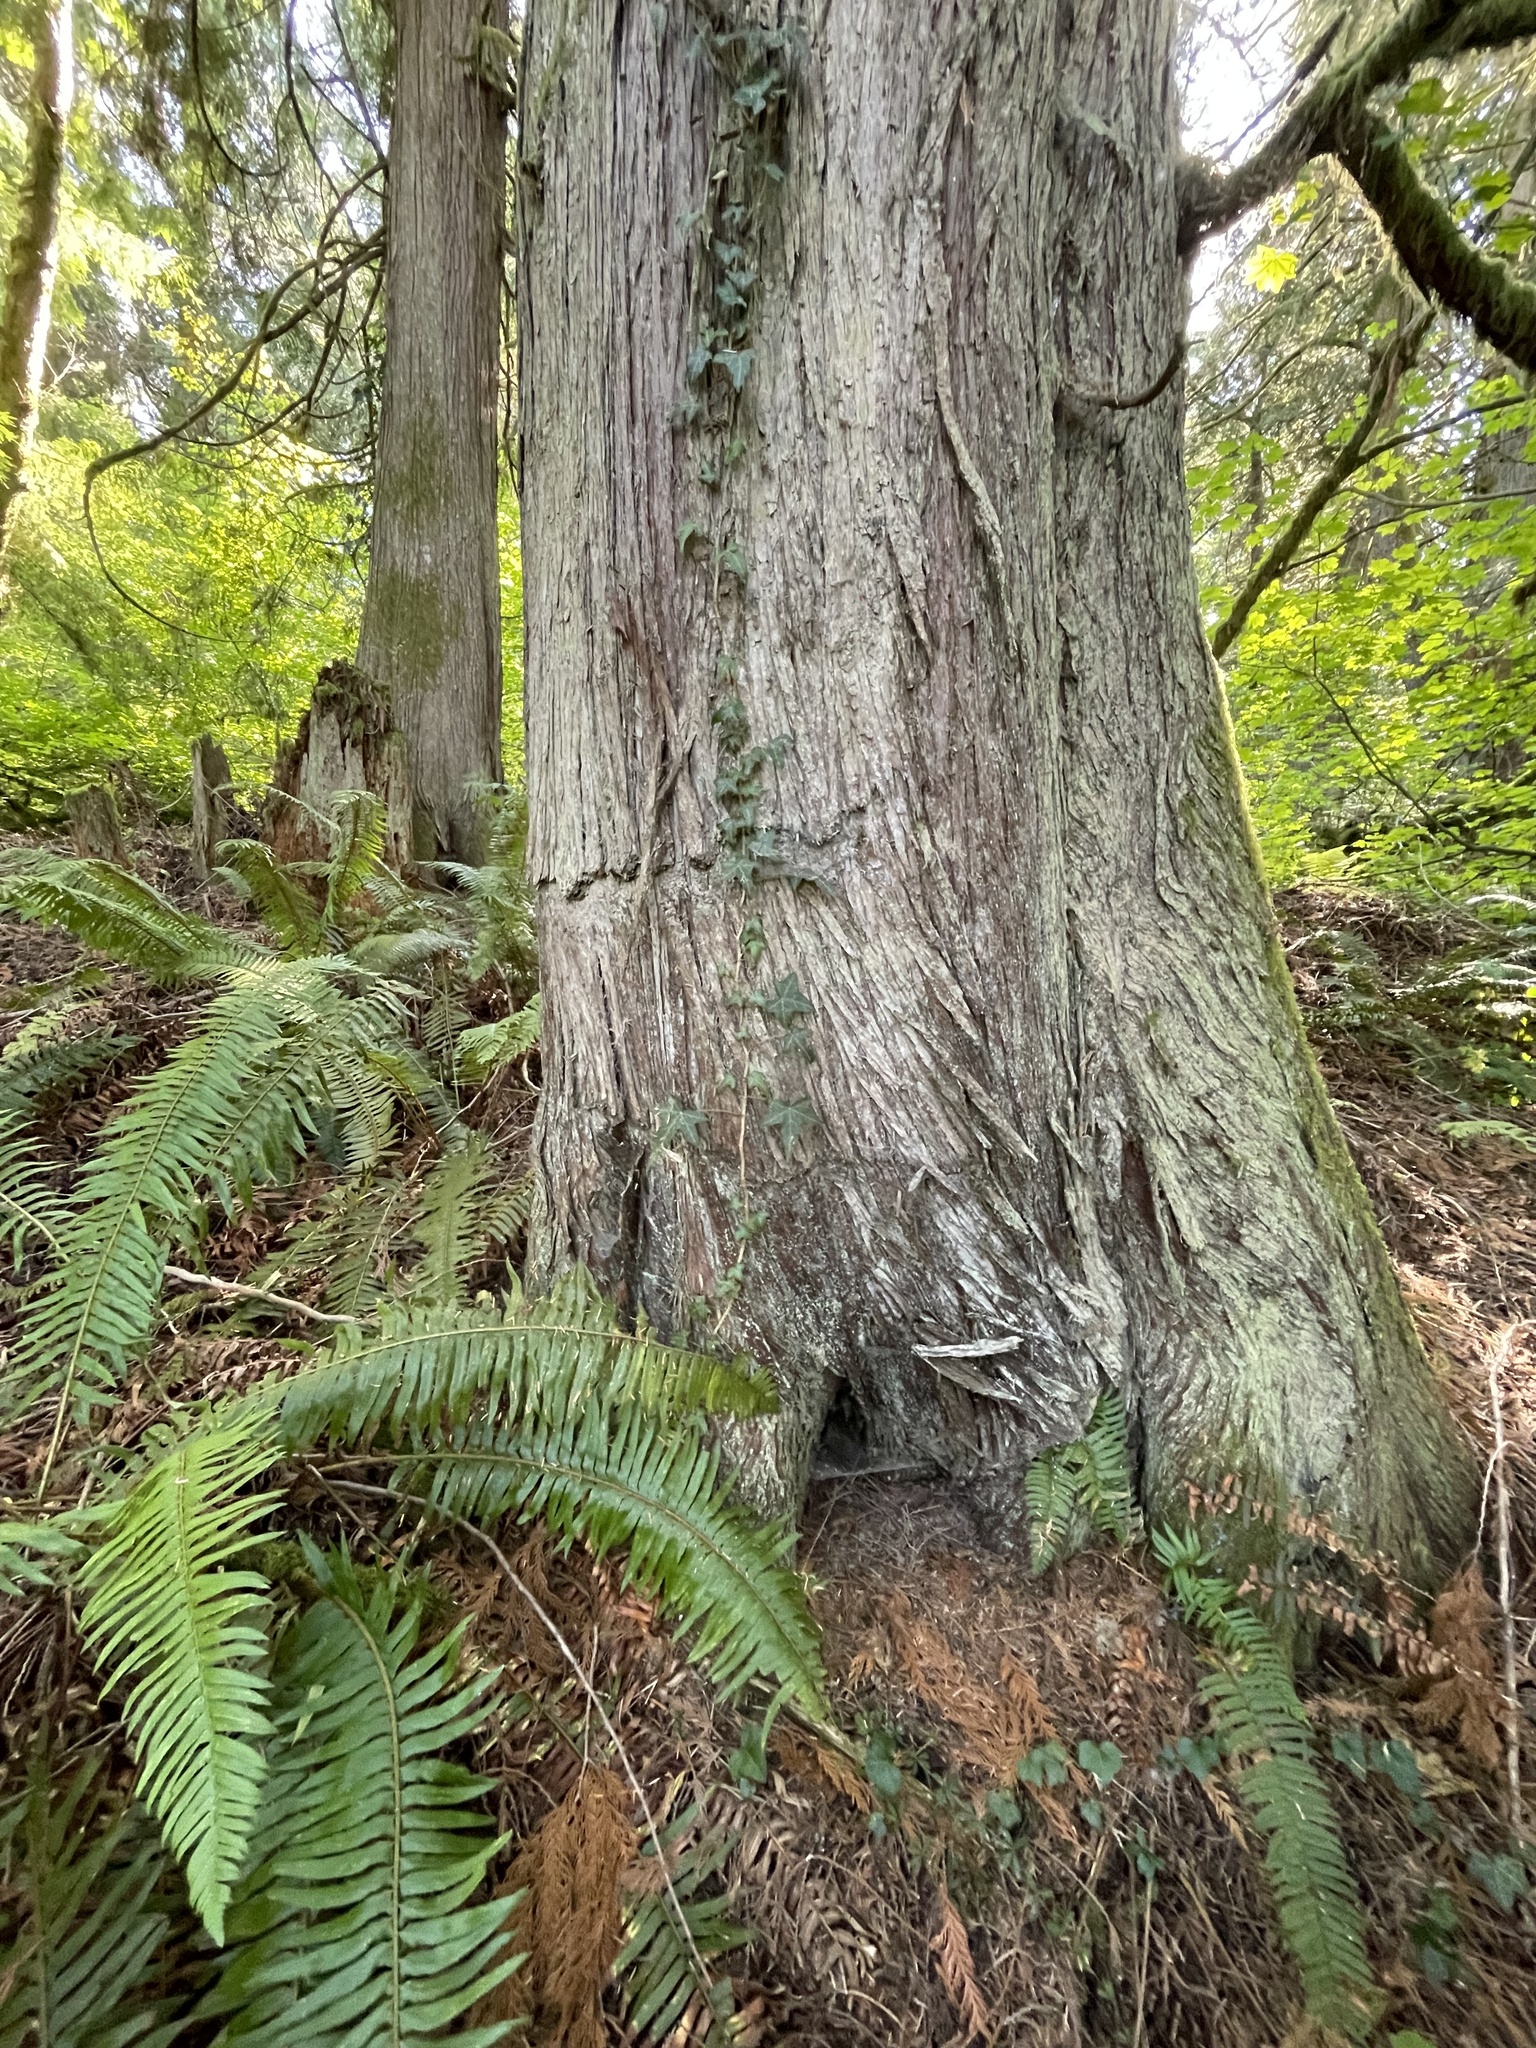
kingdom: Plantae
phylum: Tracheophyta
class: Magnoliopsida
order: Apiales
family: Araliaceae
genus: Hedera
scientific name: Hedera helix
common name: Ivy
